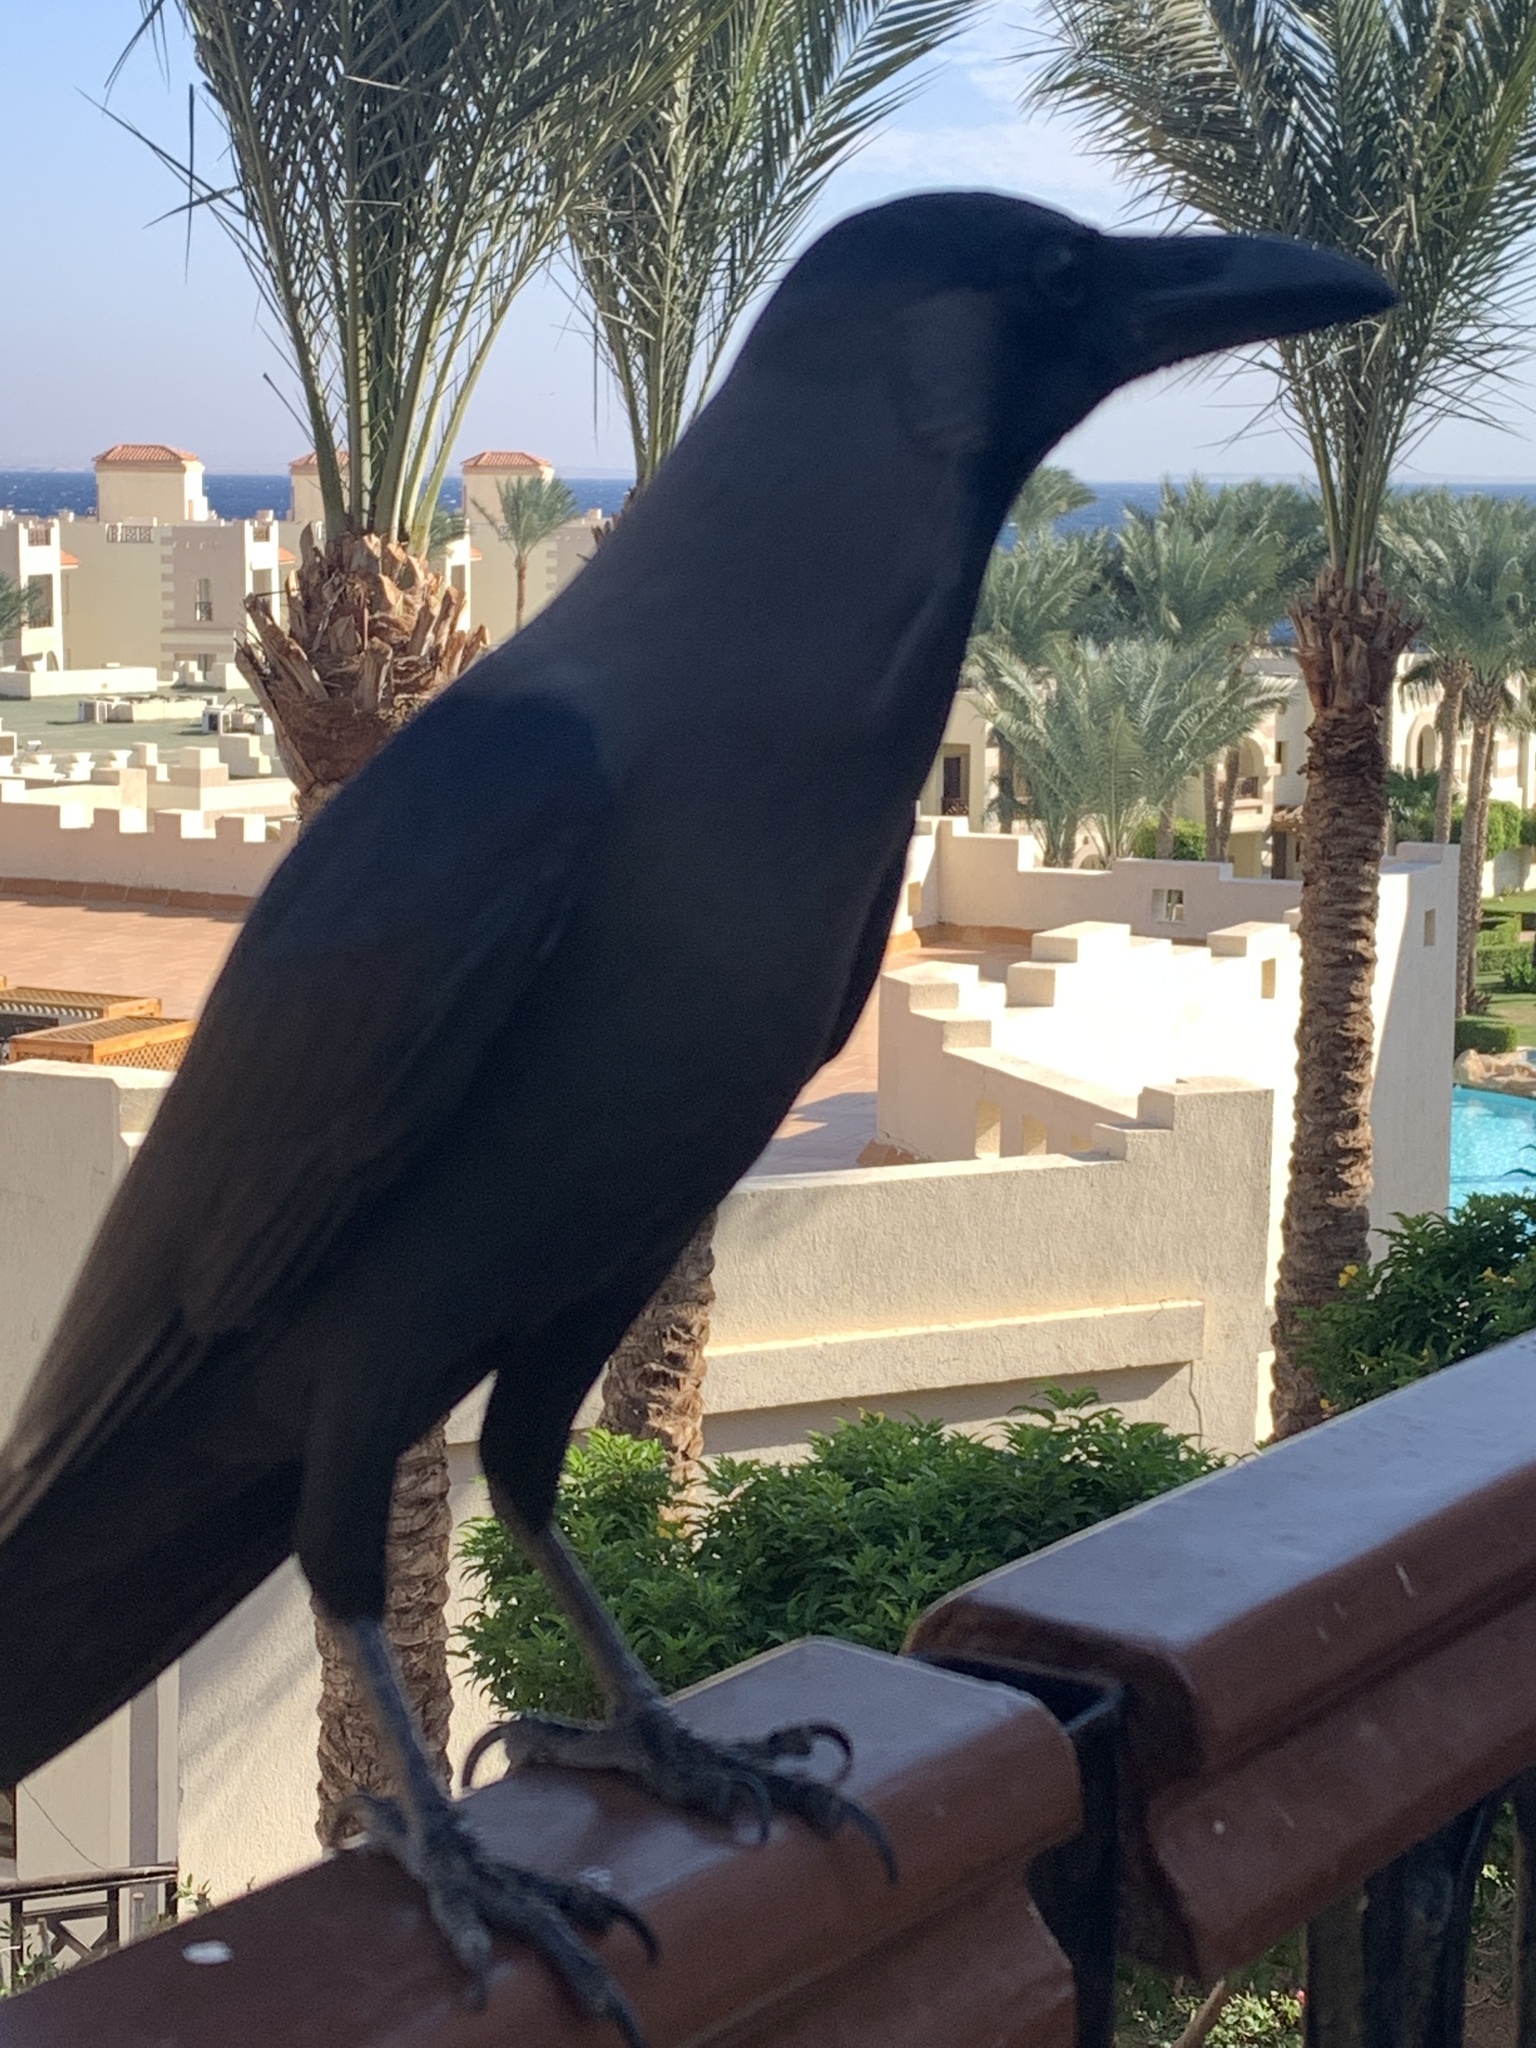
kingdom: Animalia
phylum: Chordata
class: Aves
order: Passeriformes
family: Corvidae
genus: Corvus
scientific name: Corvus splendens
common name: House crow
